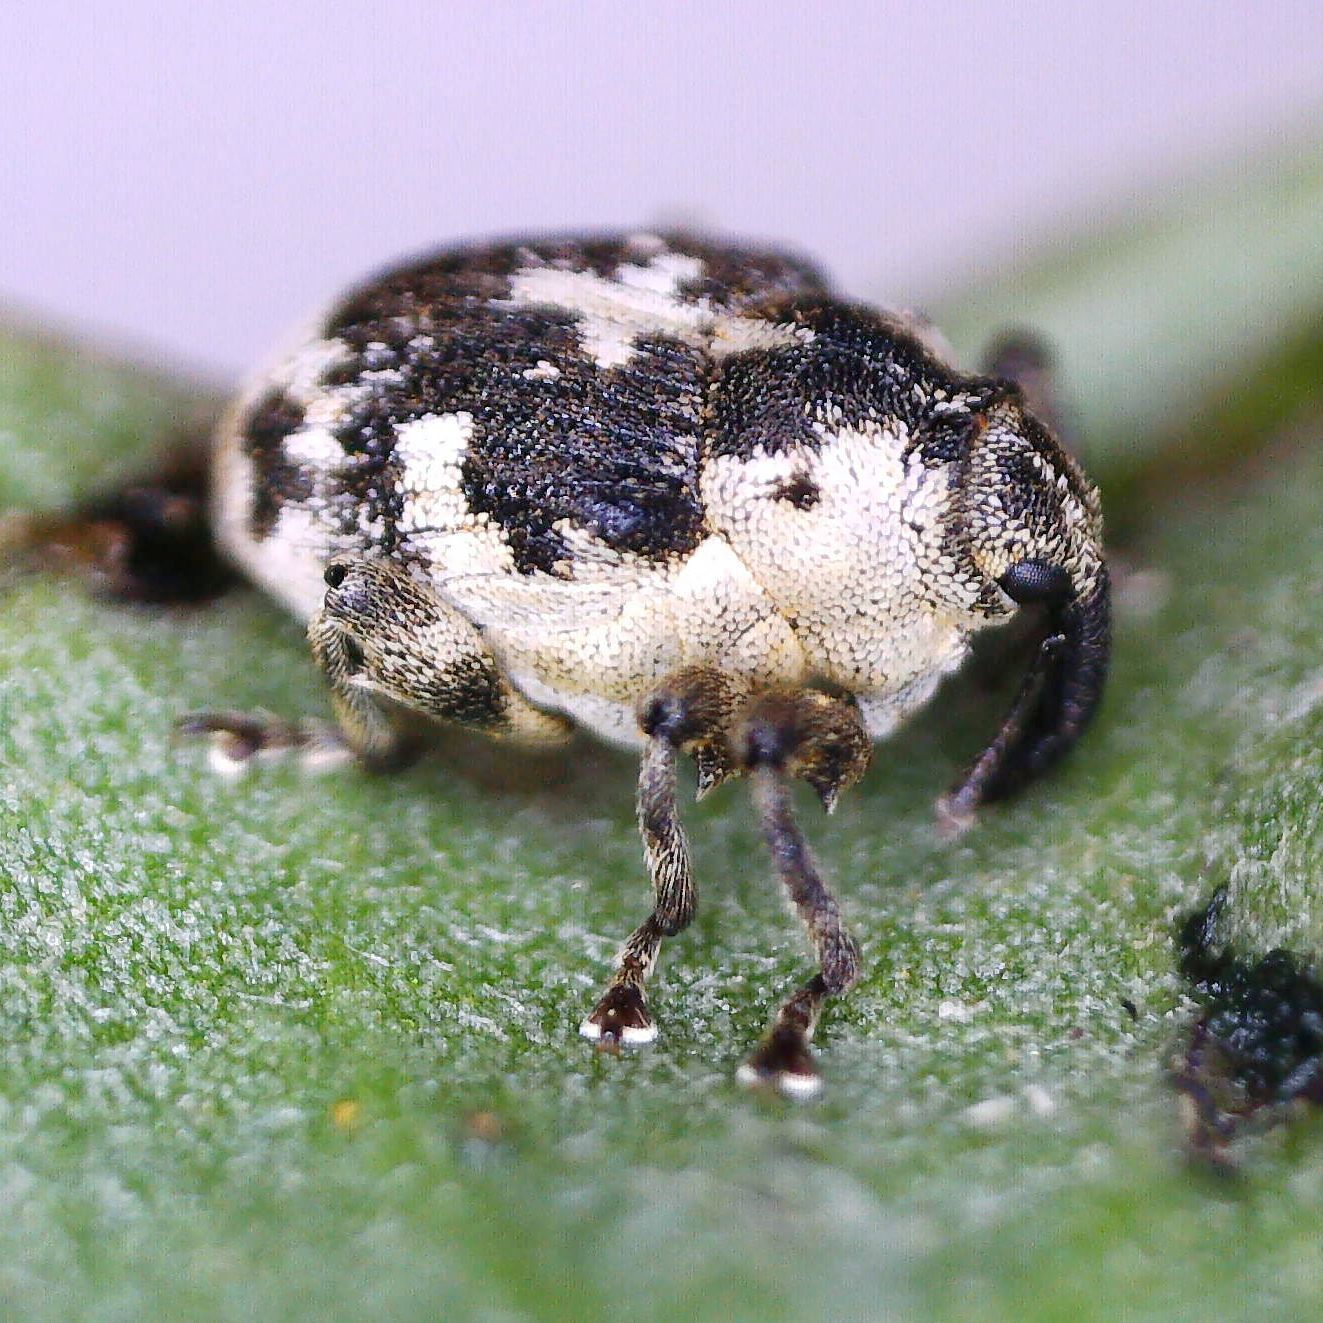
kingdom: Animalia
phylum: Arthropoda
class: Insecta
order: Coleoptera
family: Curculionidae
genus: Hadroplontus
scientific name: Hadroplontus litura
